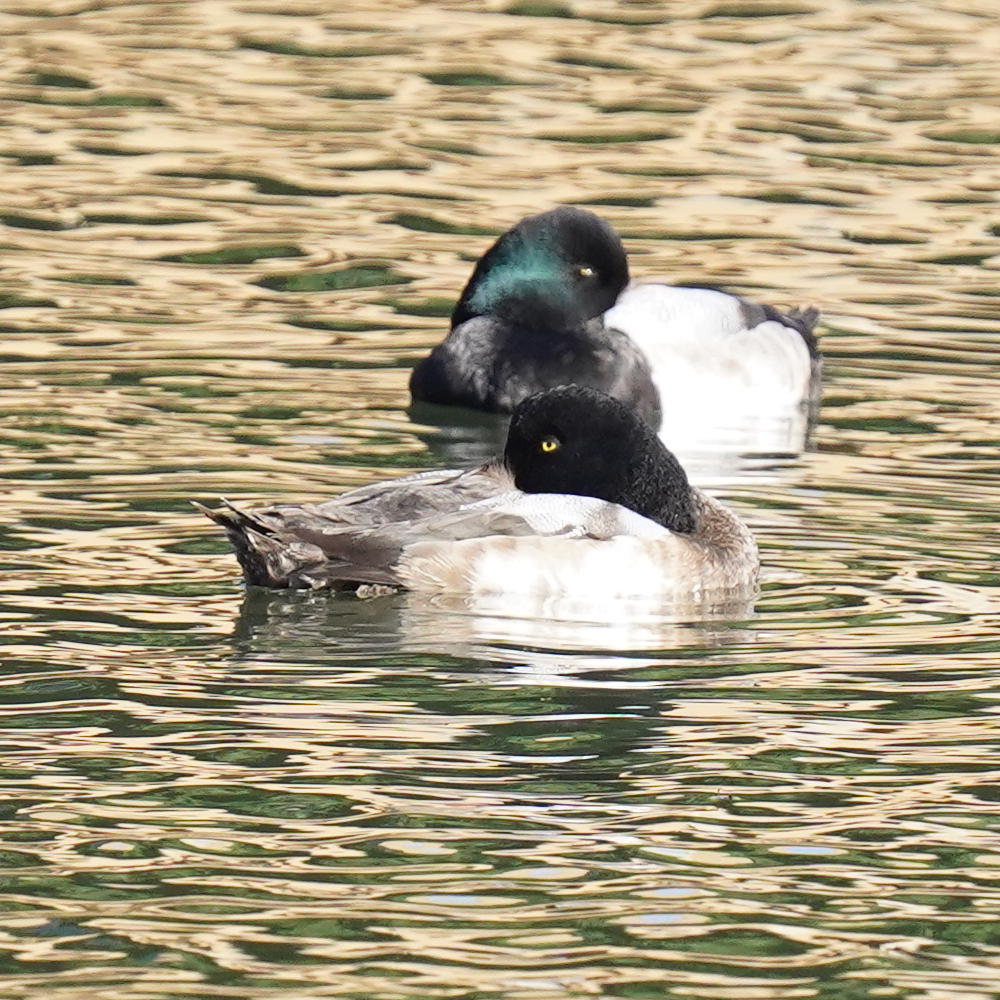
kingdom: Animalia
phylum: Chordata
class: Aves
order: Anseriformes
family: Anatidae
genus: Aythya
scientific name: Aythya marila
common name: Greater scaup
